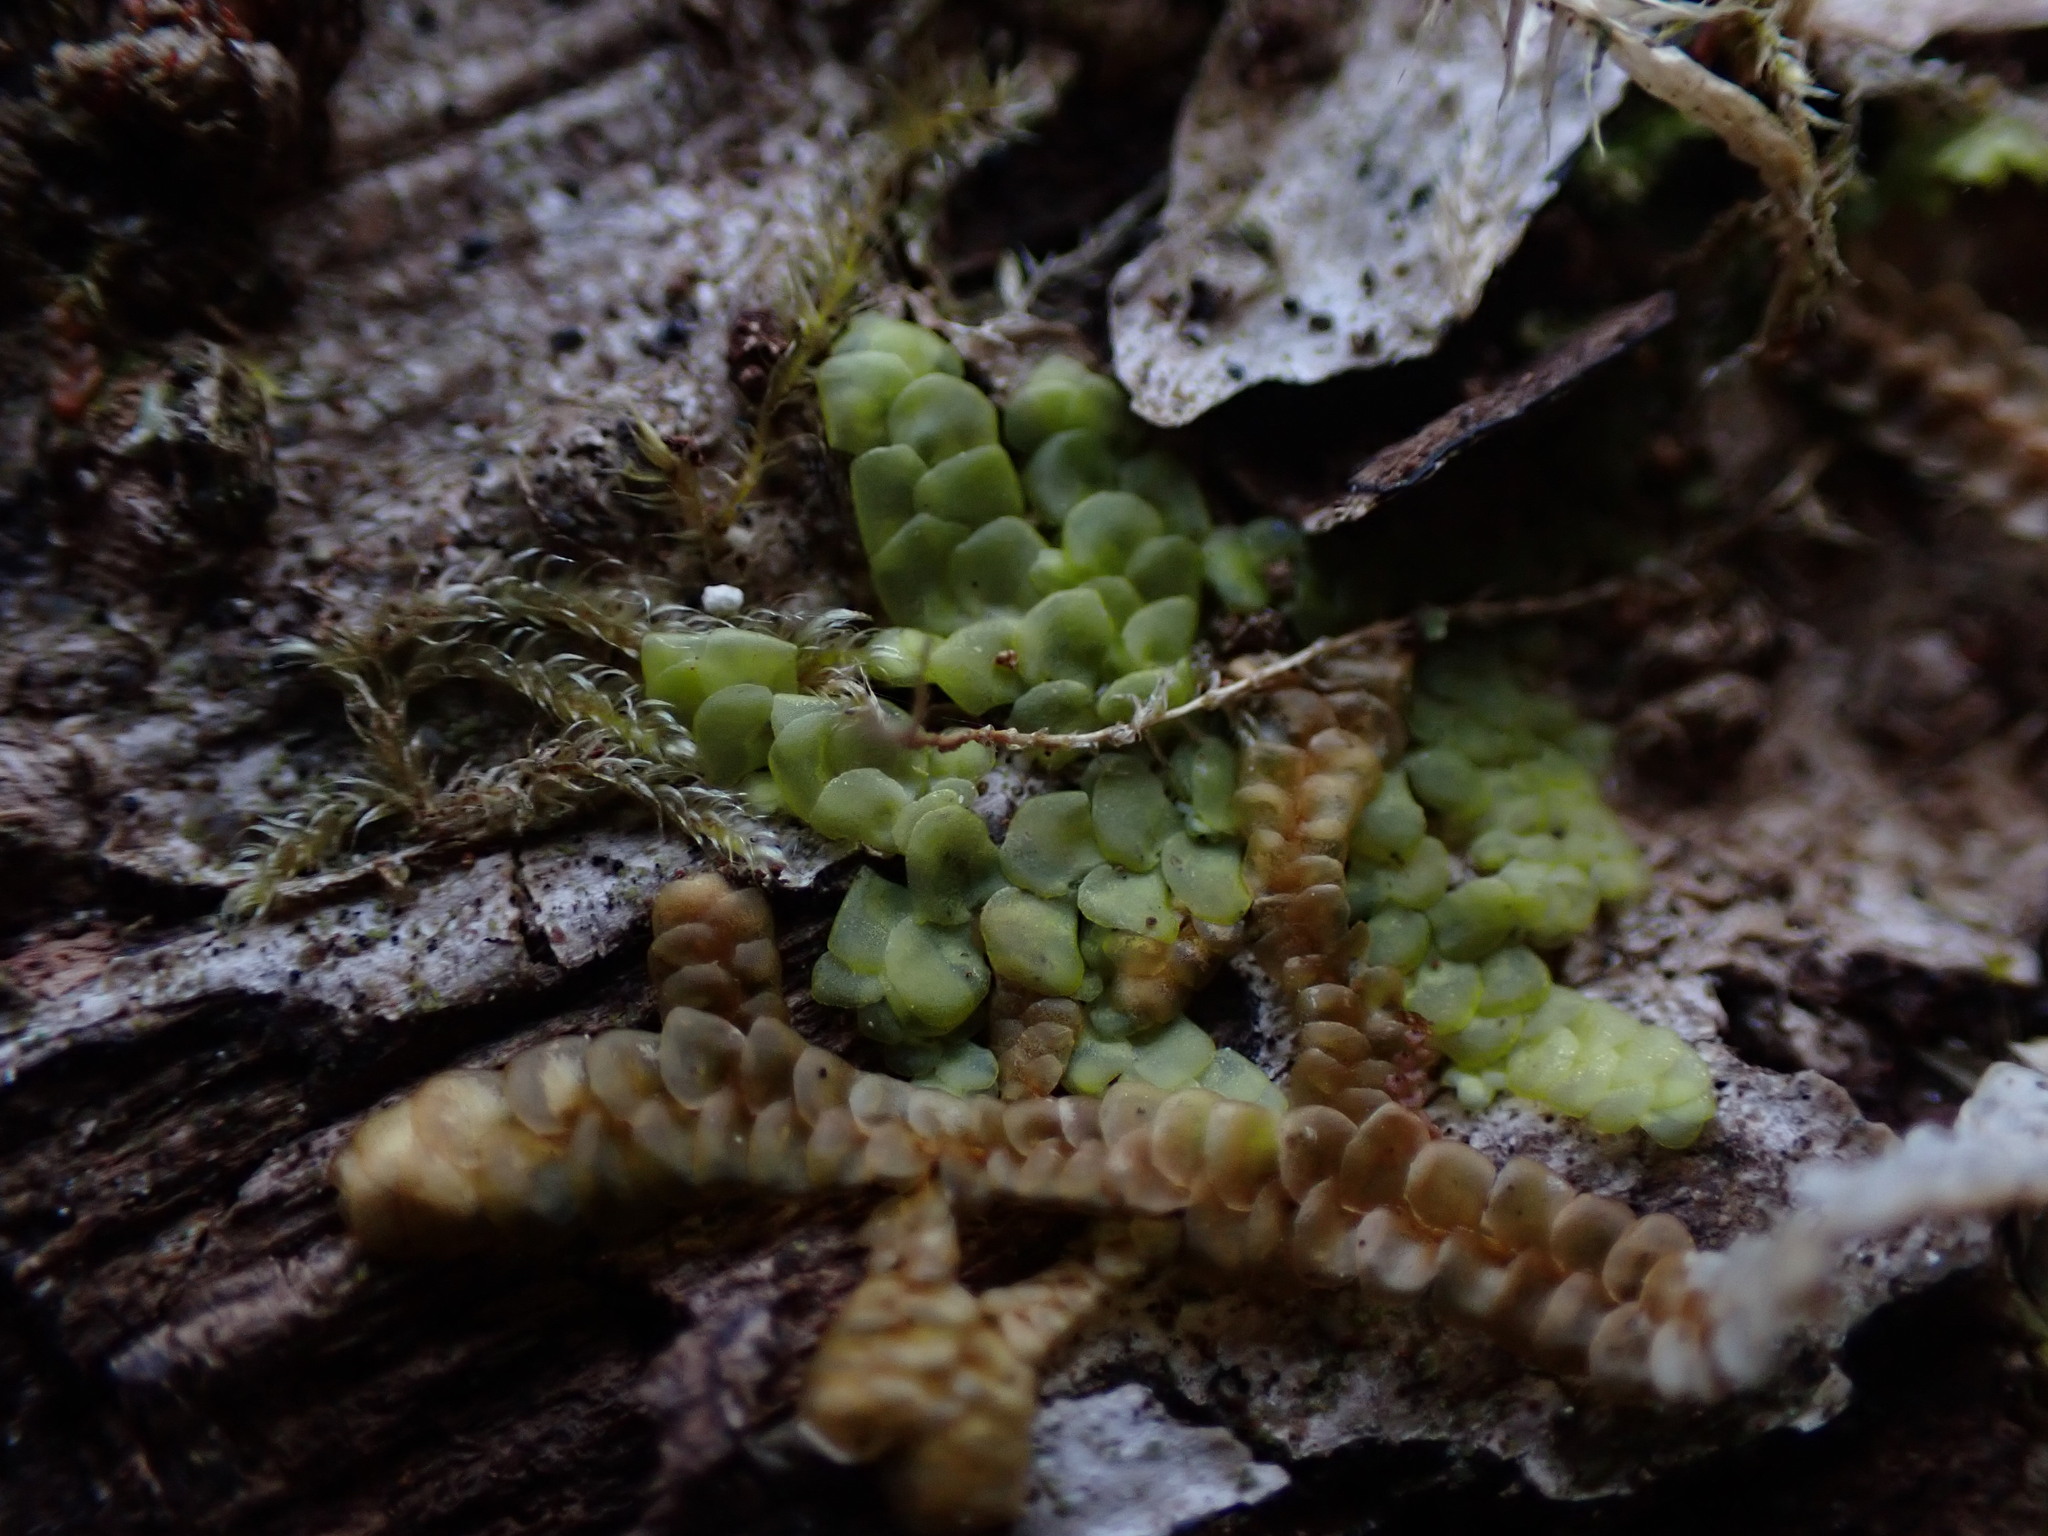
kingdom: Plantae
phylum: Marchantiophyta
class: Jungermanniopsida
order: Porellales
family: Radulaceae
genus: Radula
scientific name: Radula complanata
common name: Flat-leaved scalewort
